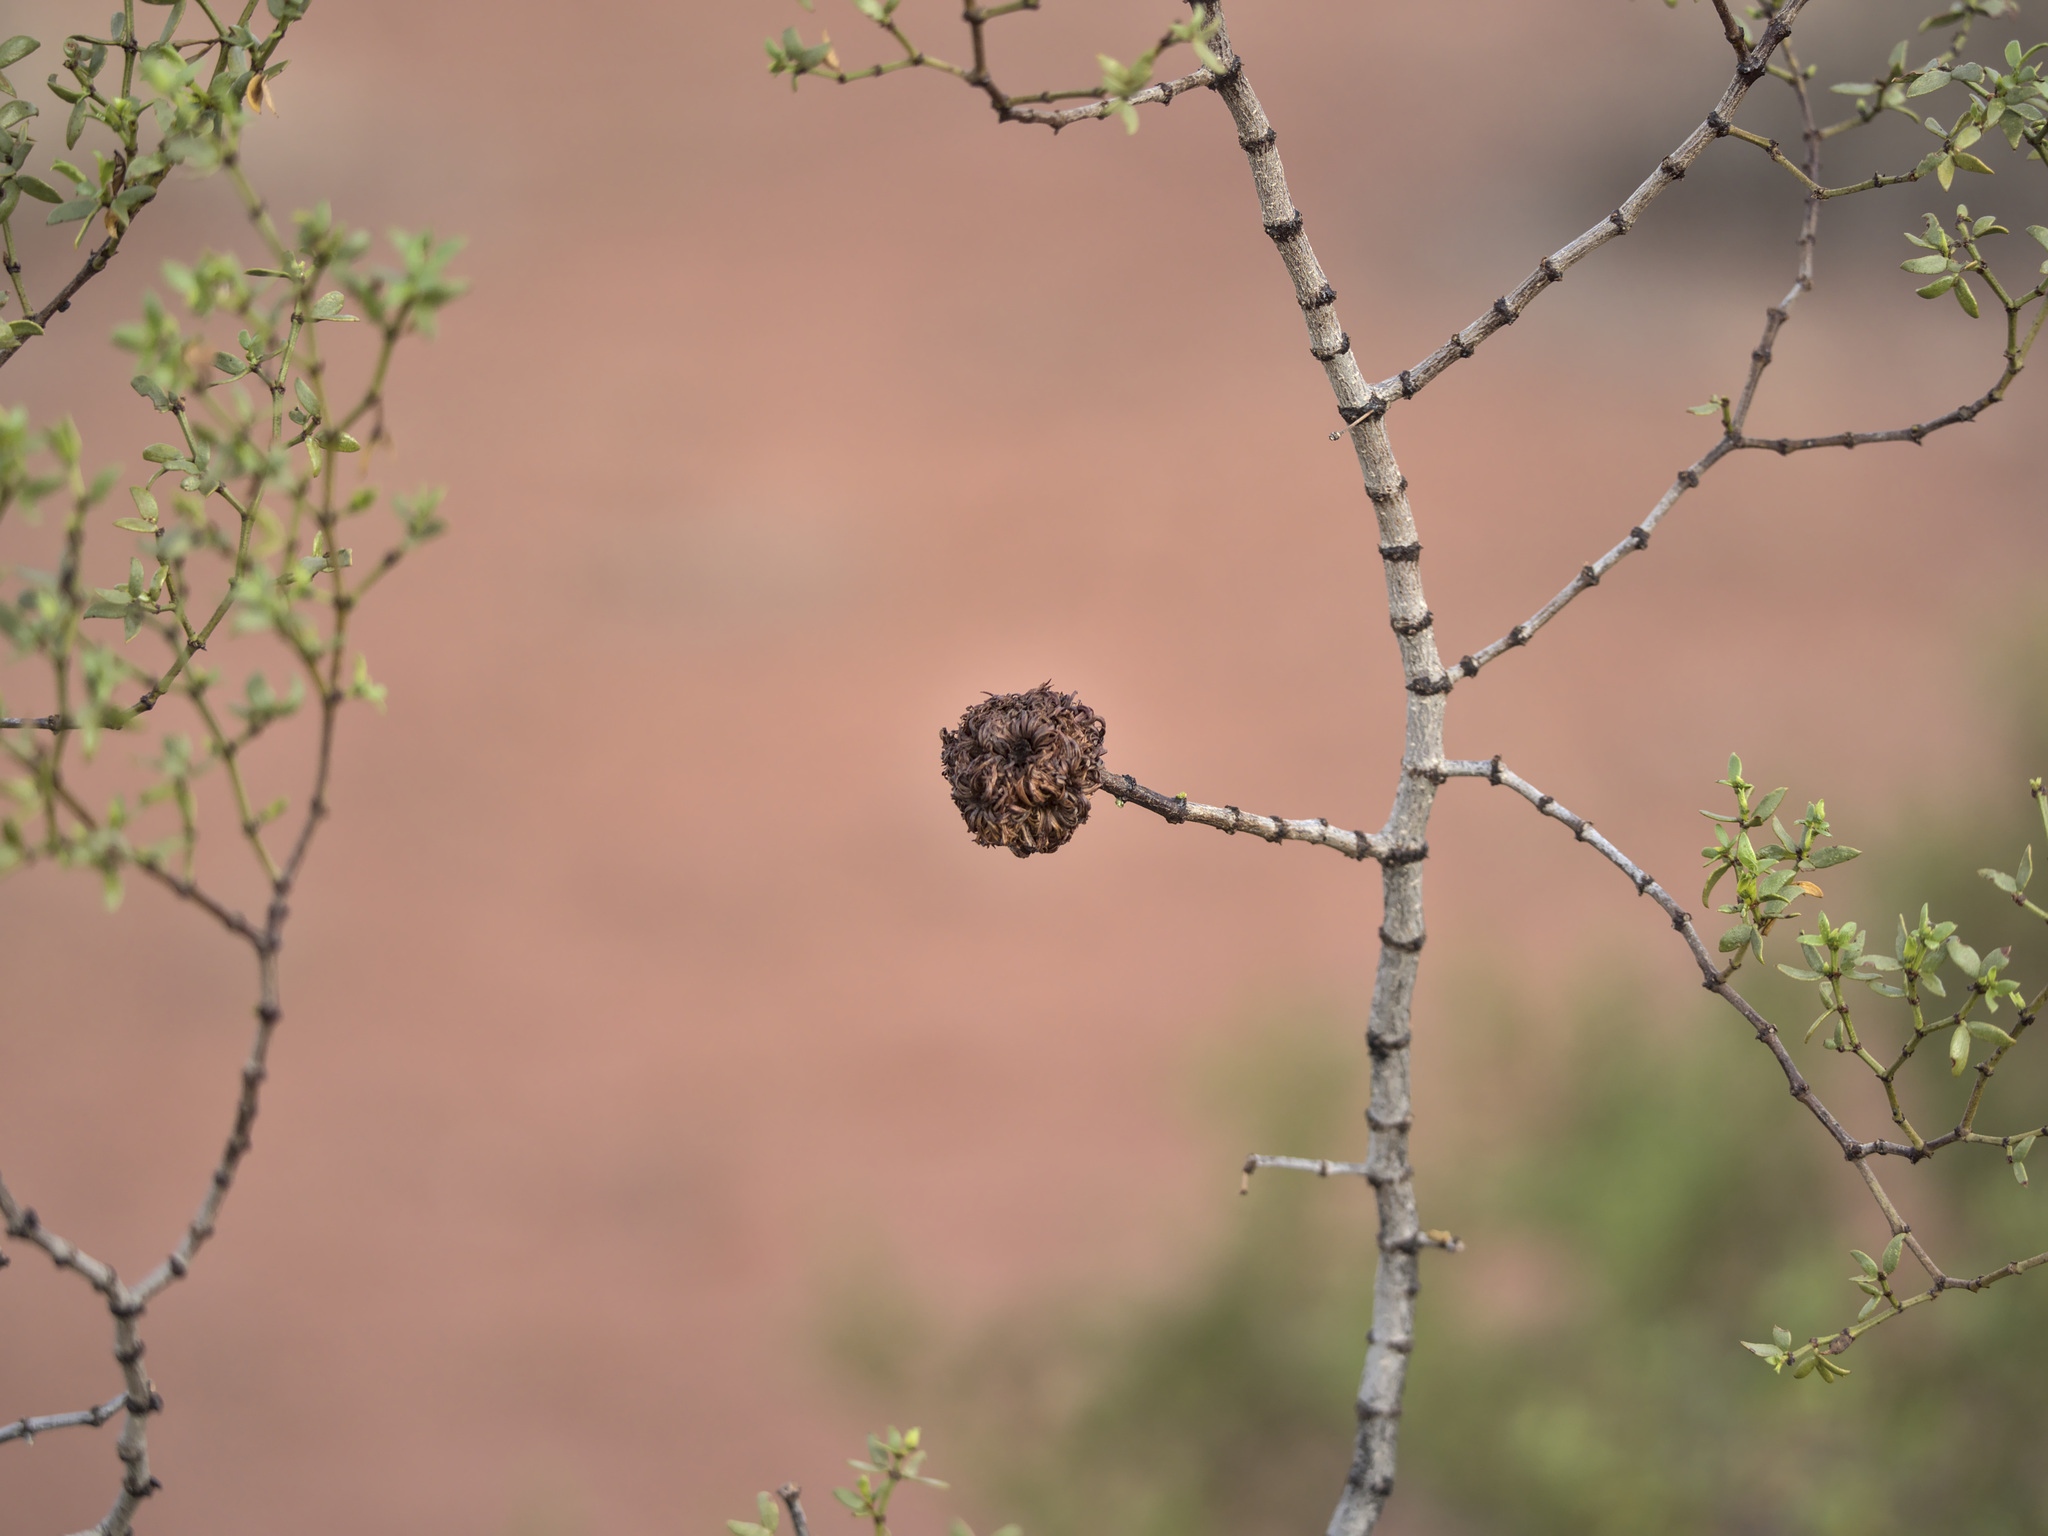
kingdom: Animalia
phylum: Arthropoda
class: Insecta
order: Diptera
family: Cecidomyiidae
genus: Asphondylia
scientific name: Asphondylia auripila
